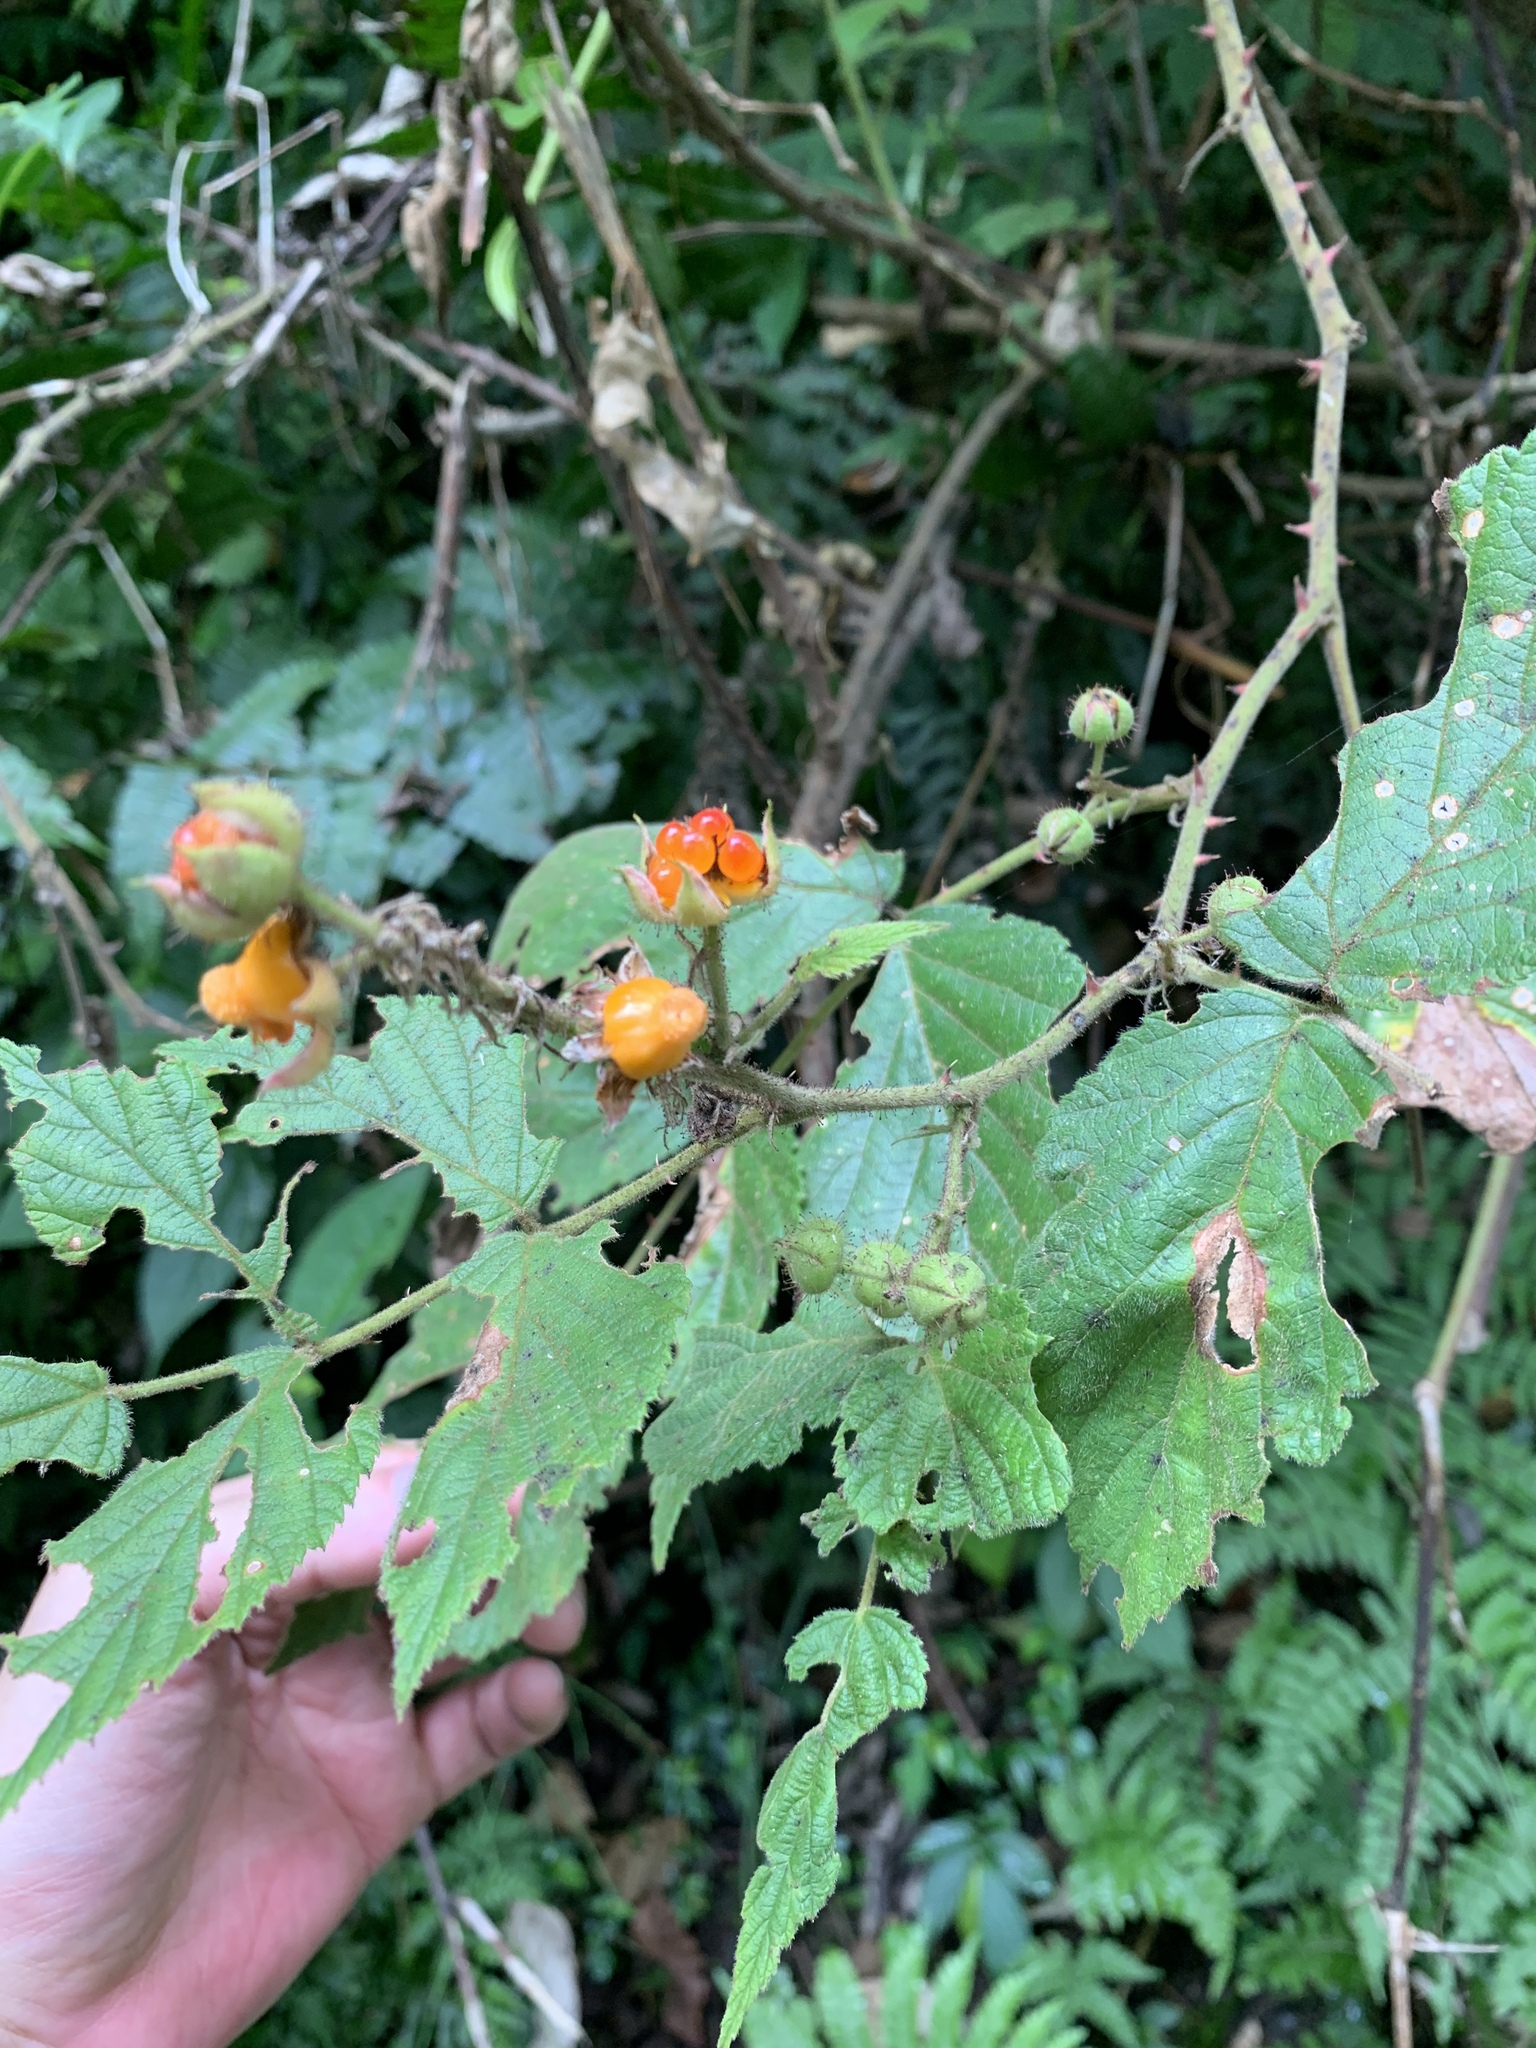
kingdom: Plantae
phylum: Tracheophyta
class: Magnoliopsida
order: Rosales
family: Rosaceae
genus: Rubus
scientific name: Rubus parviaraliifolius
